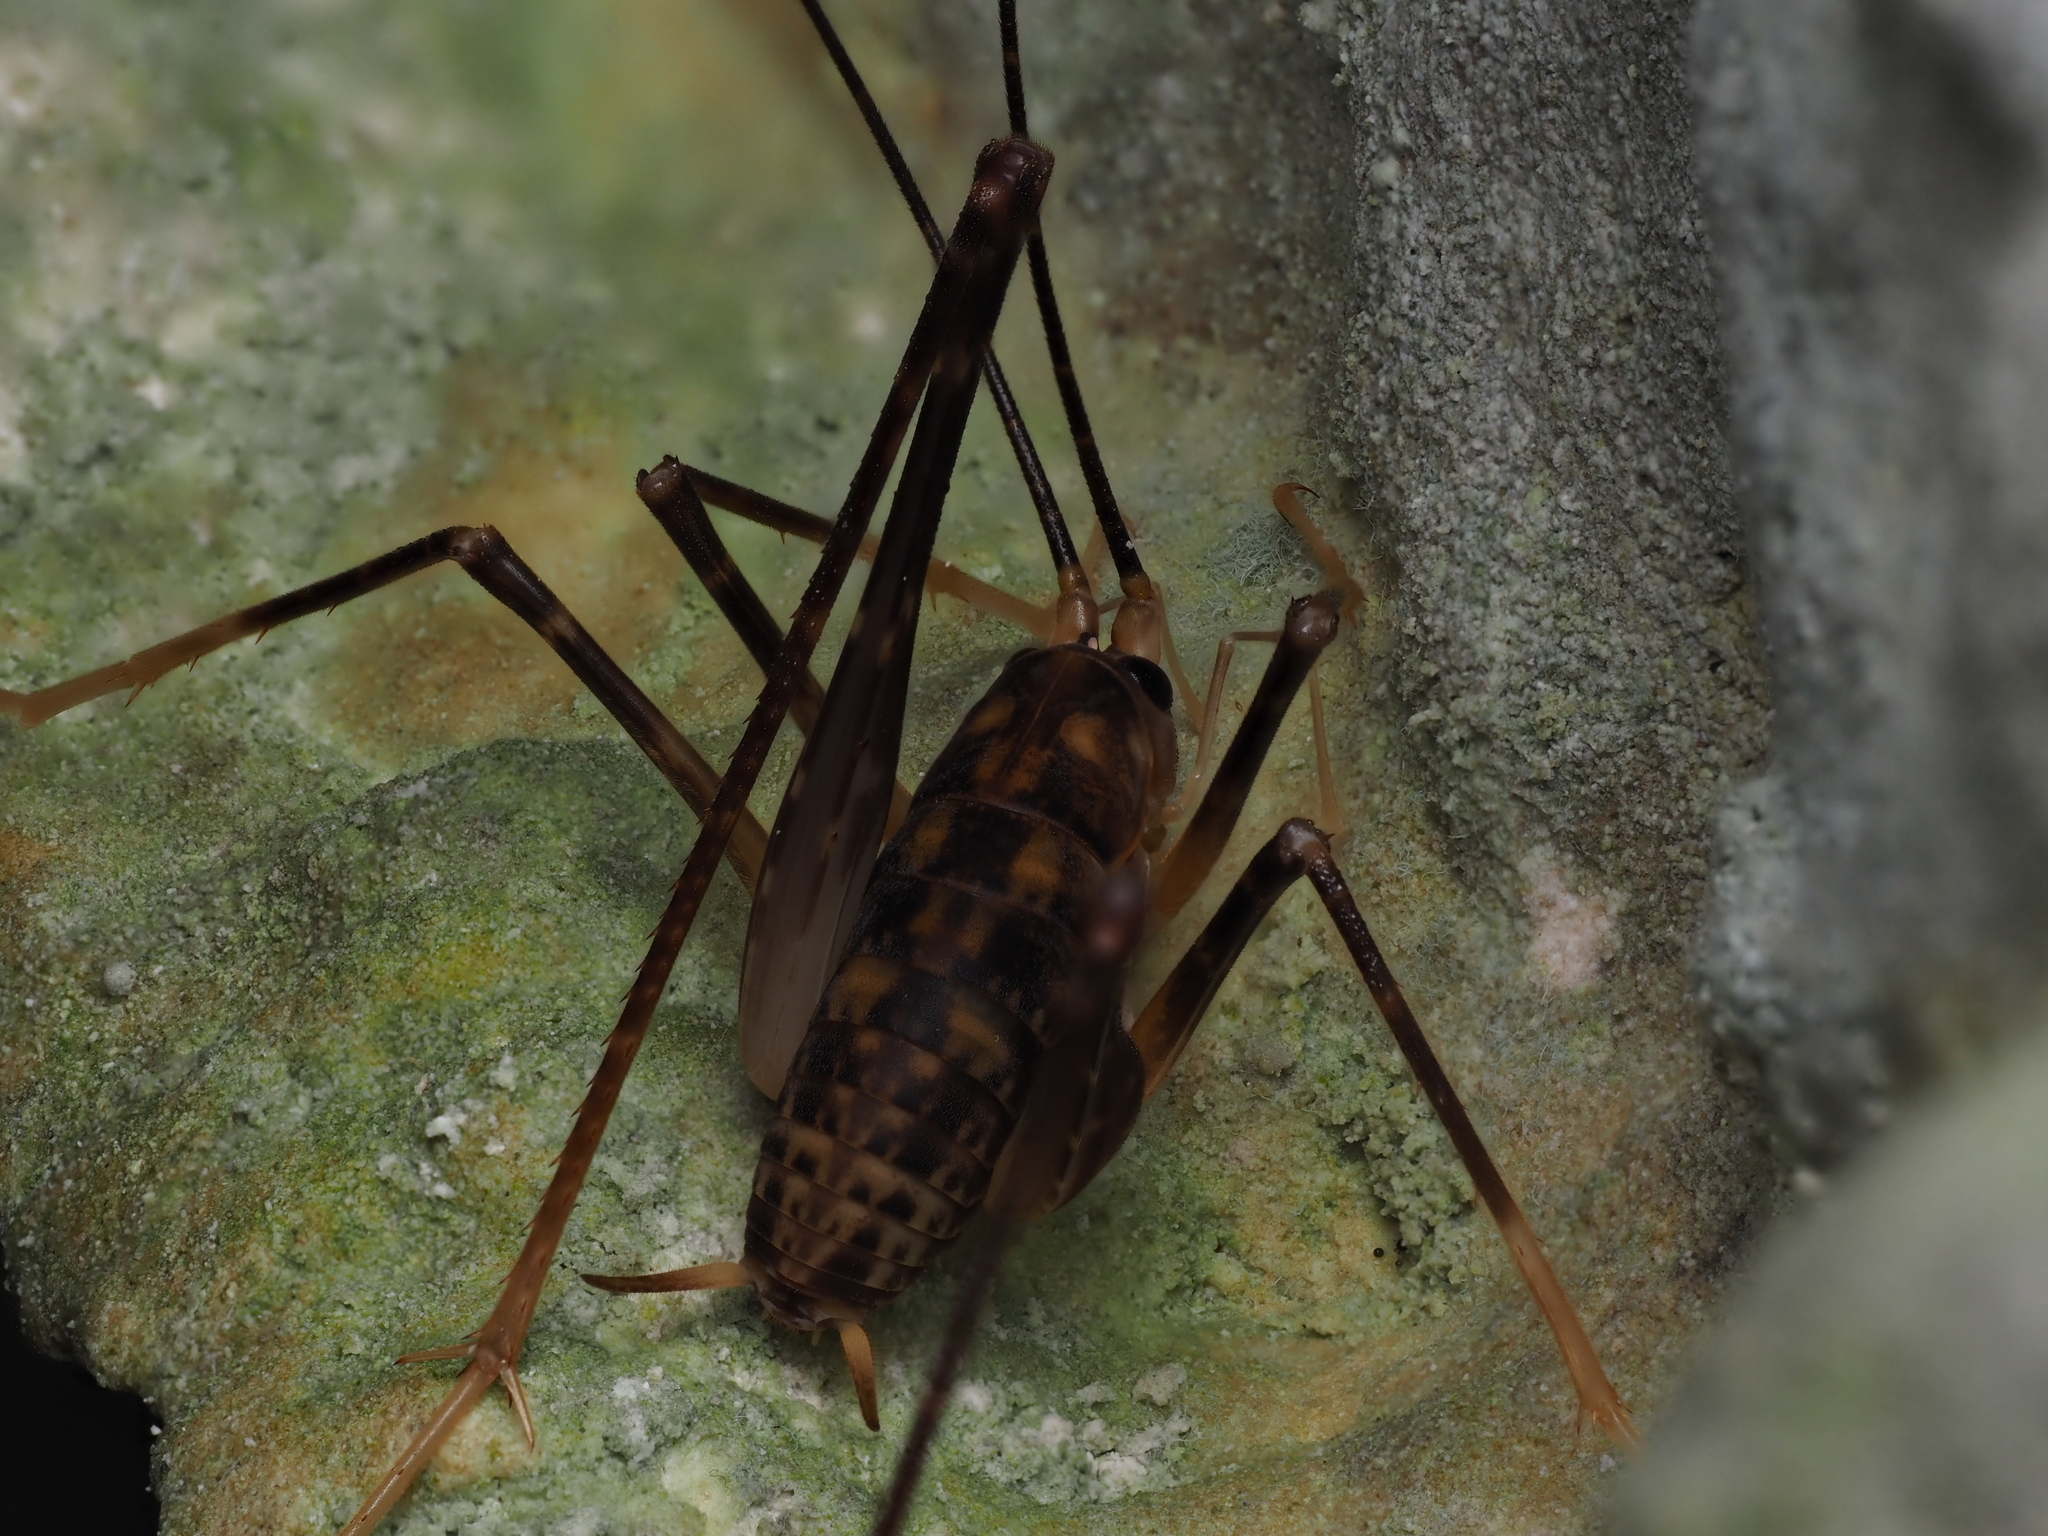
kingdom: Animalia
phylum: Arthropoda
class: Insecta
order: Orthoptera
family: Rhaphidophoridae
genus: Pachyrhamma
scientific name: Pachyrhamma waitomoensis
